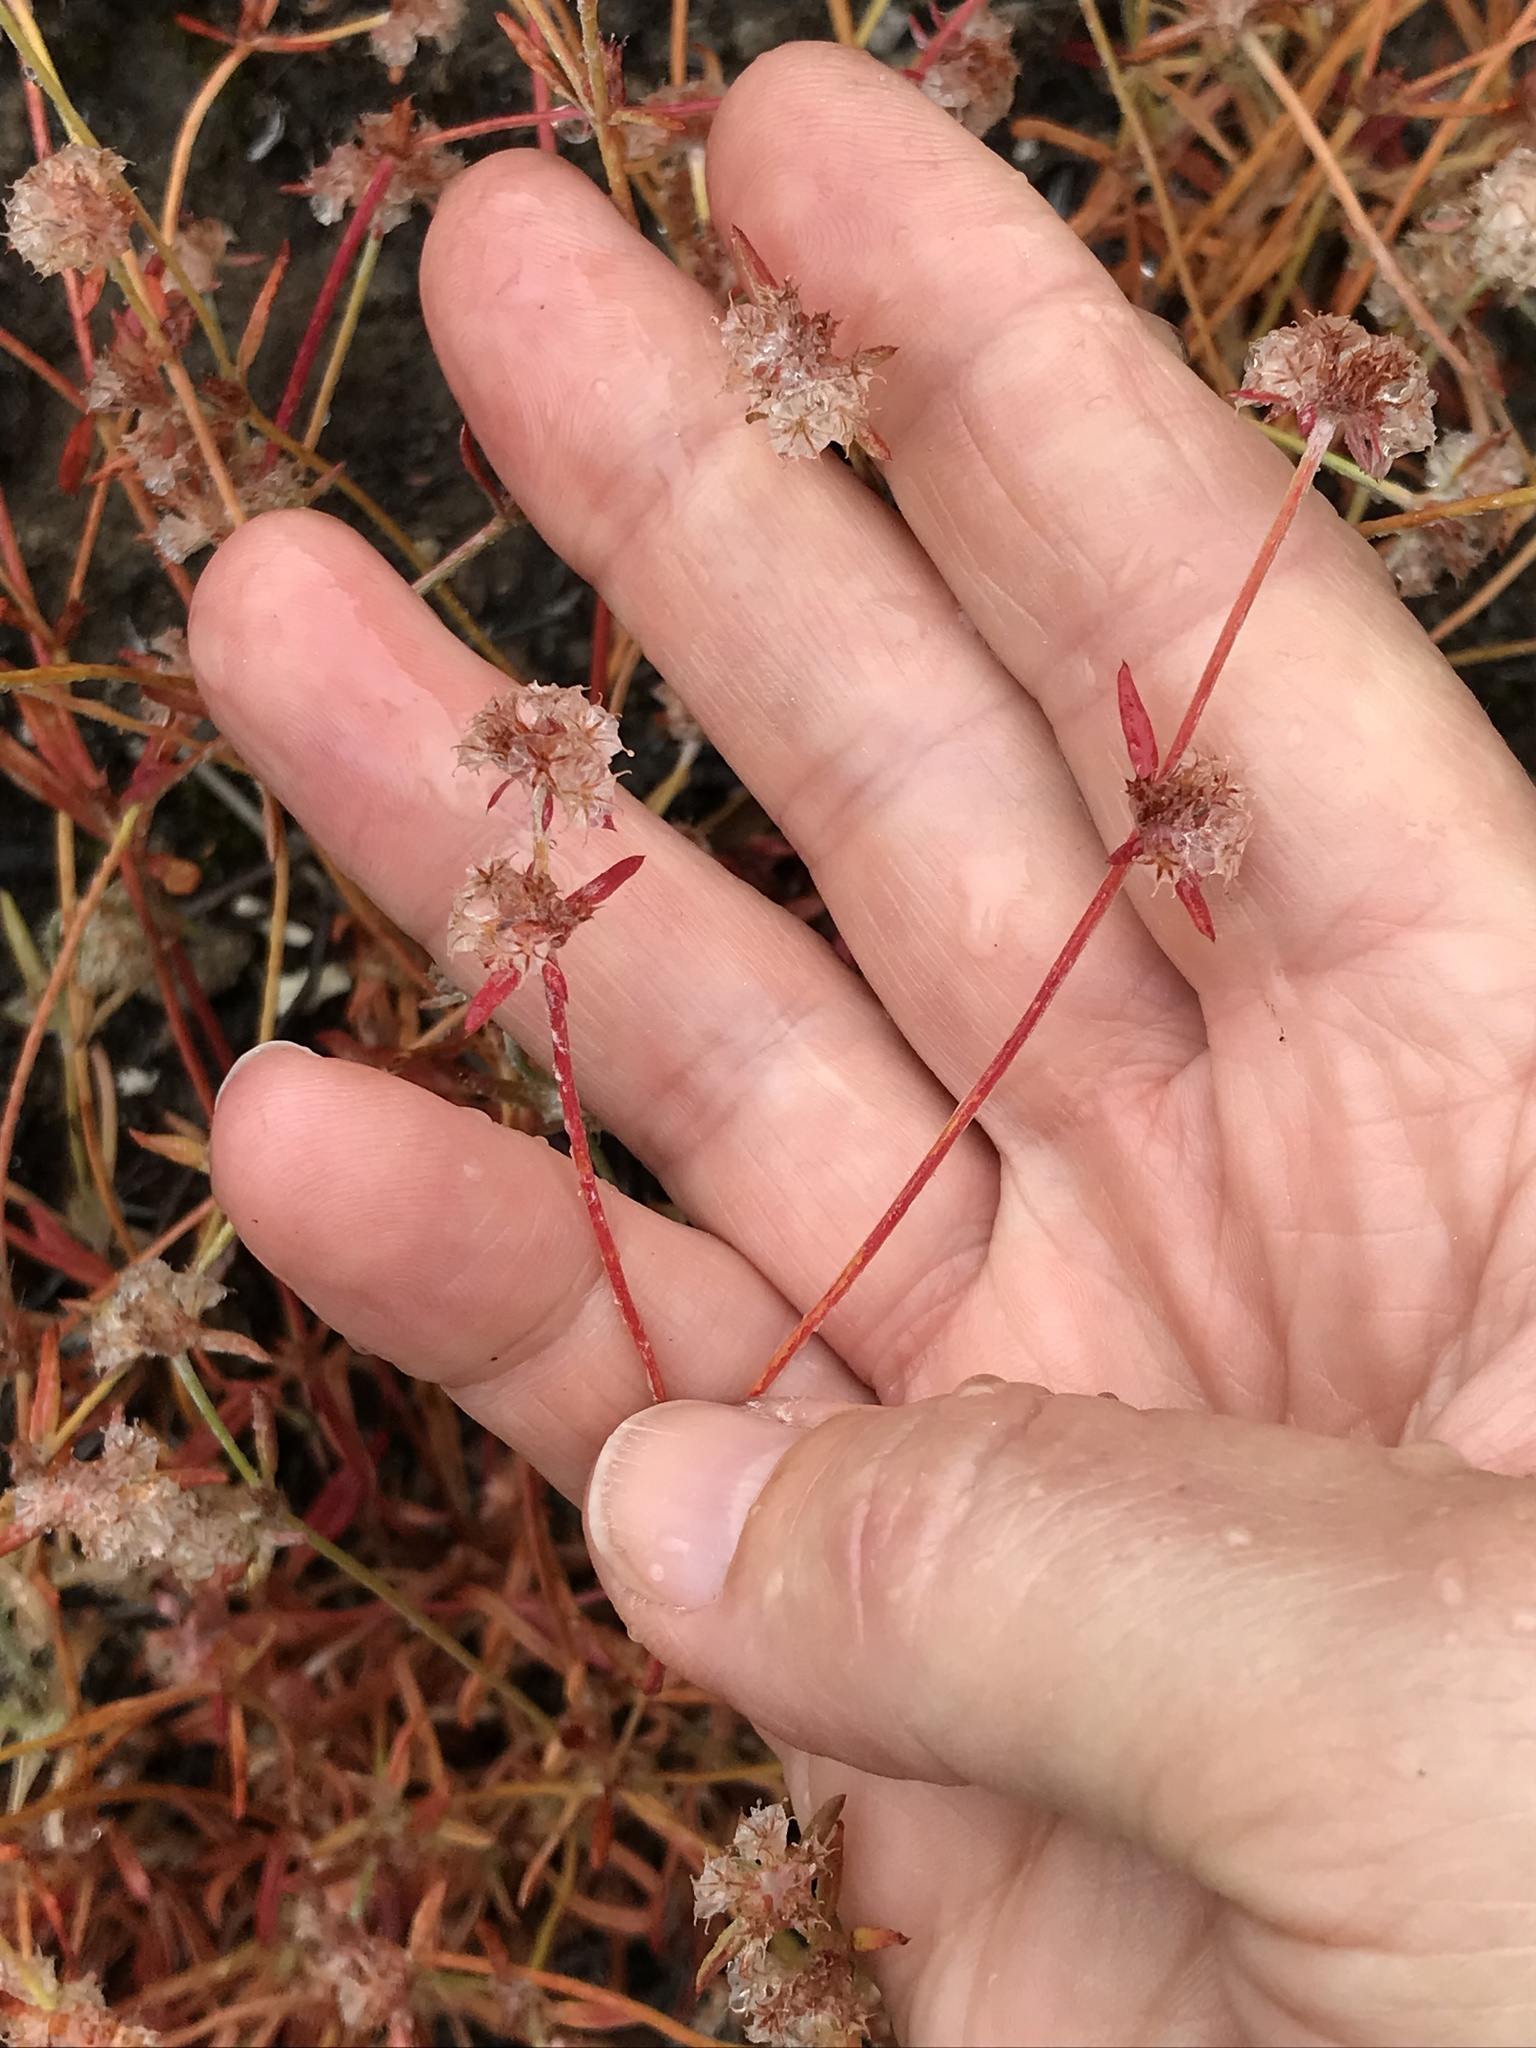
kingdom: Plantae
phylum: Tracheophyta
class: Magnoliopsida
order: Caryophyllales
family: Polygonaceae
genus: Chorizanthe
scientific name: Chorizanthe membranacea
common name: Pink spineflower
